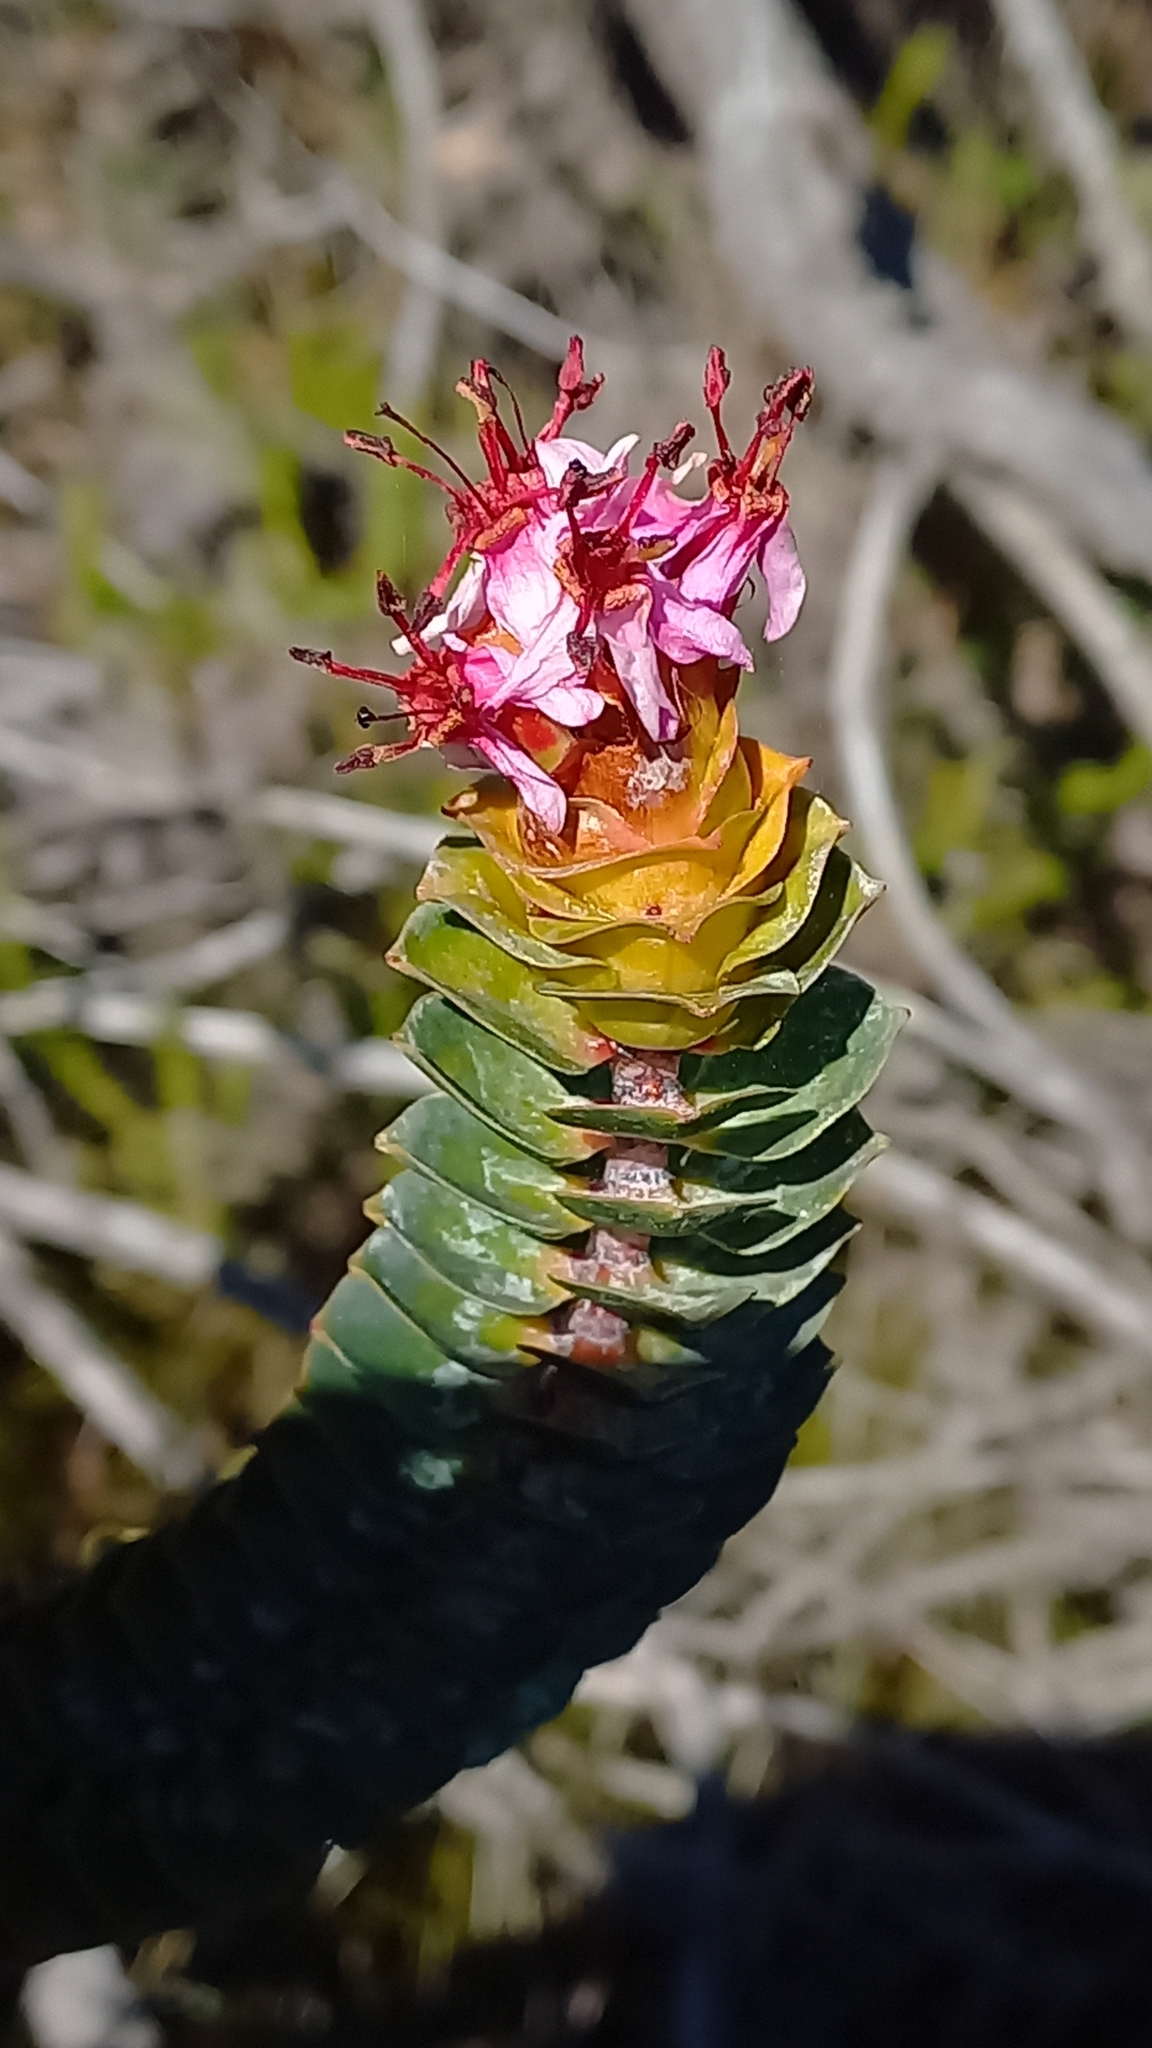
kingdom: Plantae
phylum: Tracheophyta
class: Magnoliopsida
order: Myrtales
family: Penaeaceae
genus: Saltera
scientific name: Saltera sarcocolla
